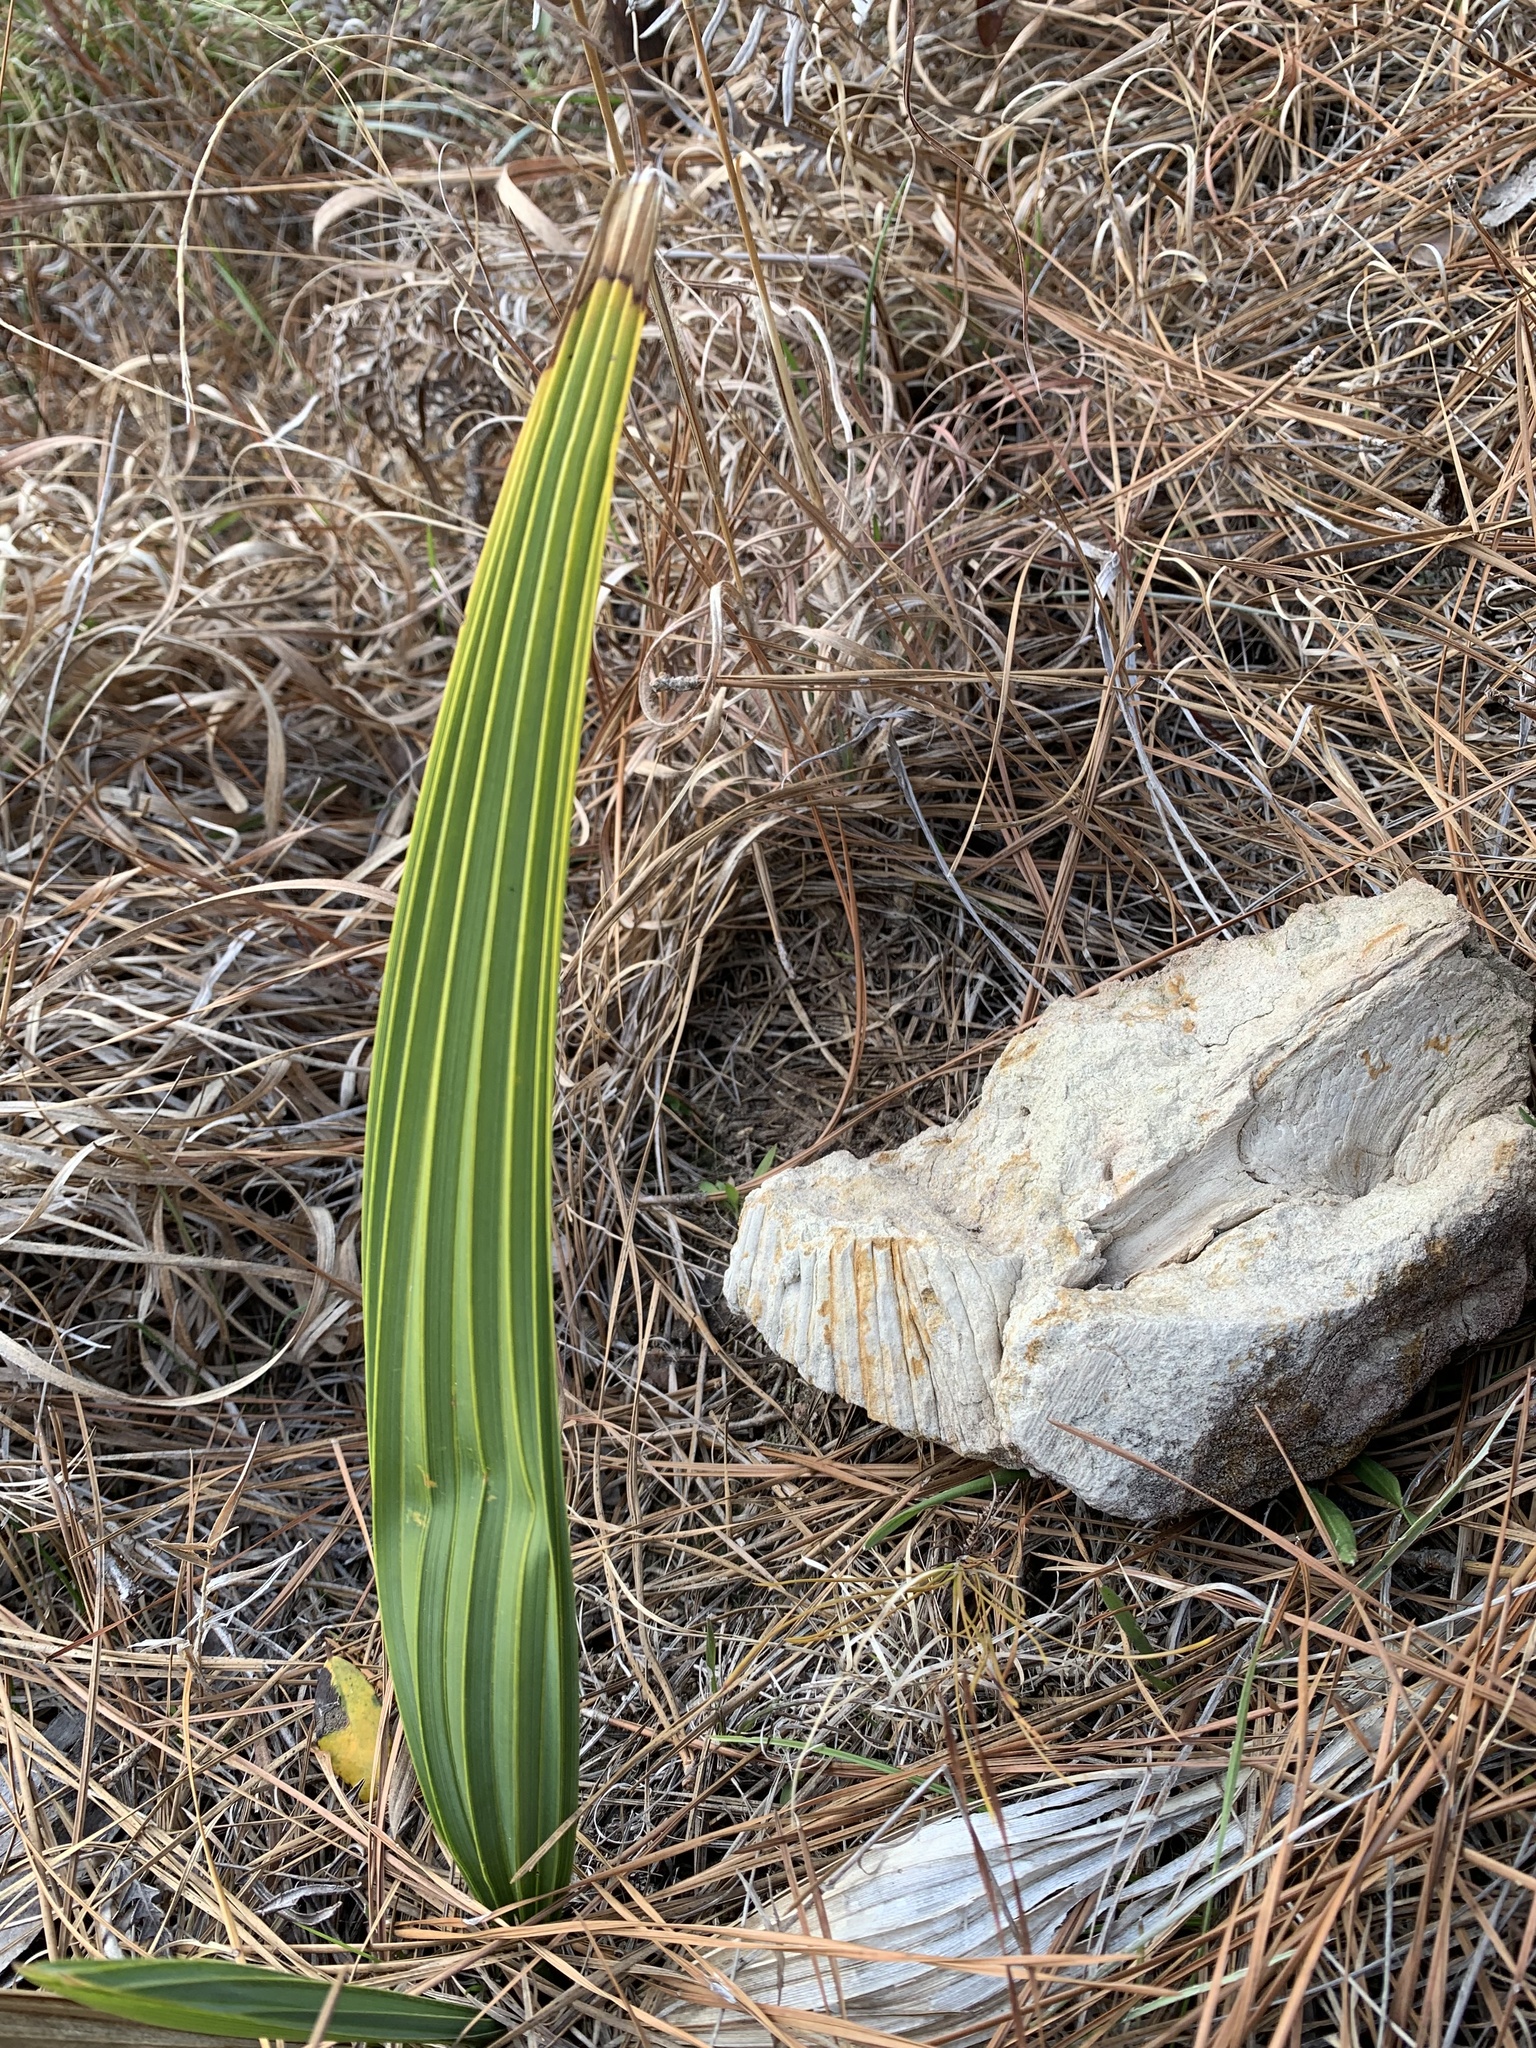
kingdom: Plantae
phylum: Tracheophyta
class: Liliopsida
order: Arecales
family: Arecaceae
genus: Sabal
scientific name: Sabal minor
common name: Dwarf palmetto
